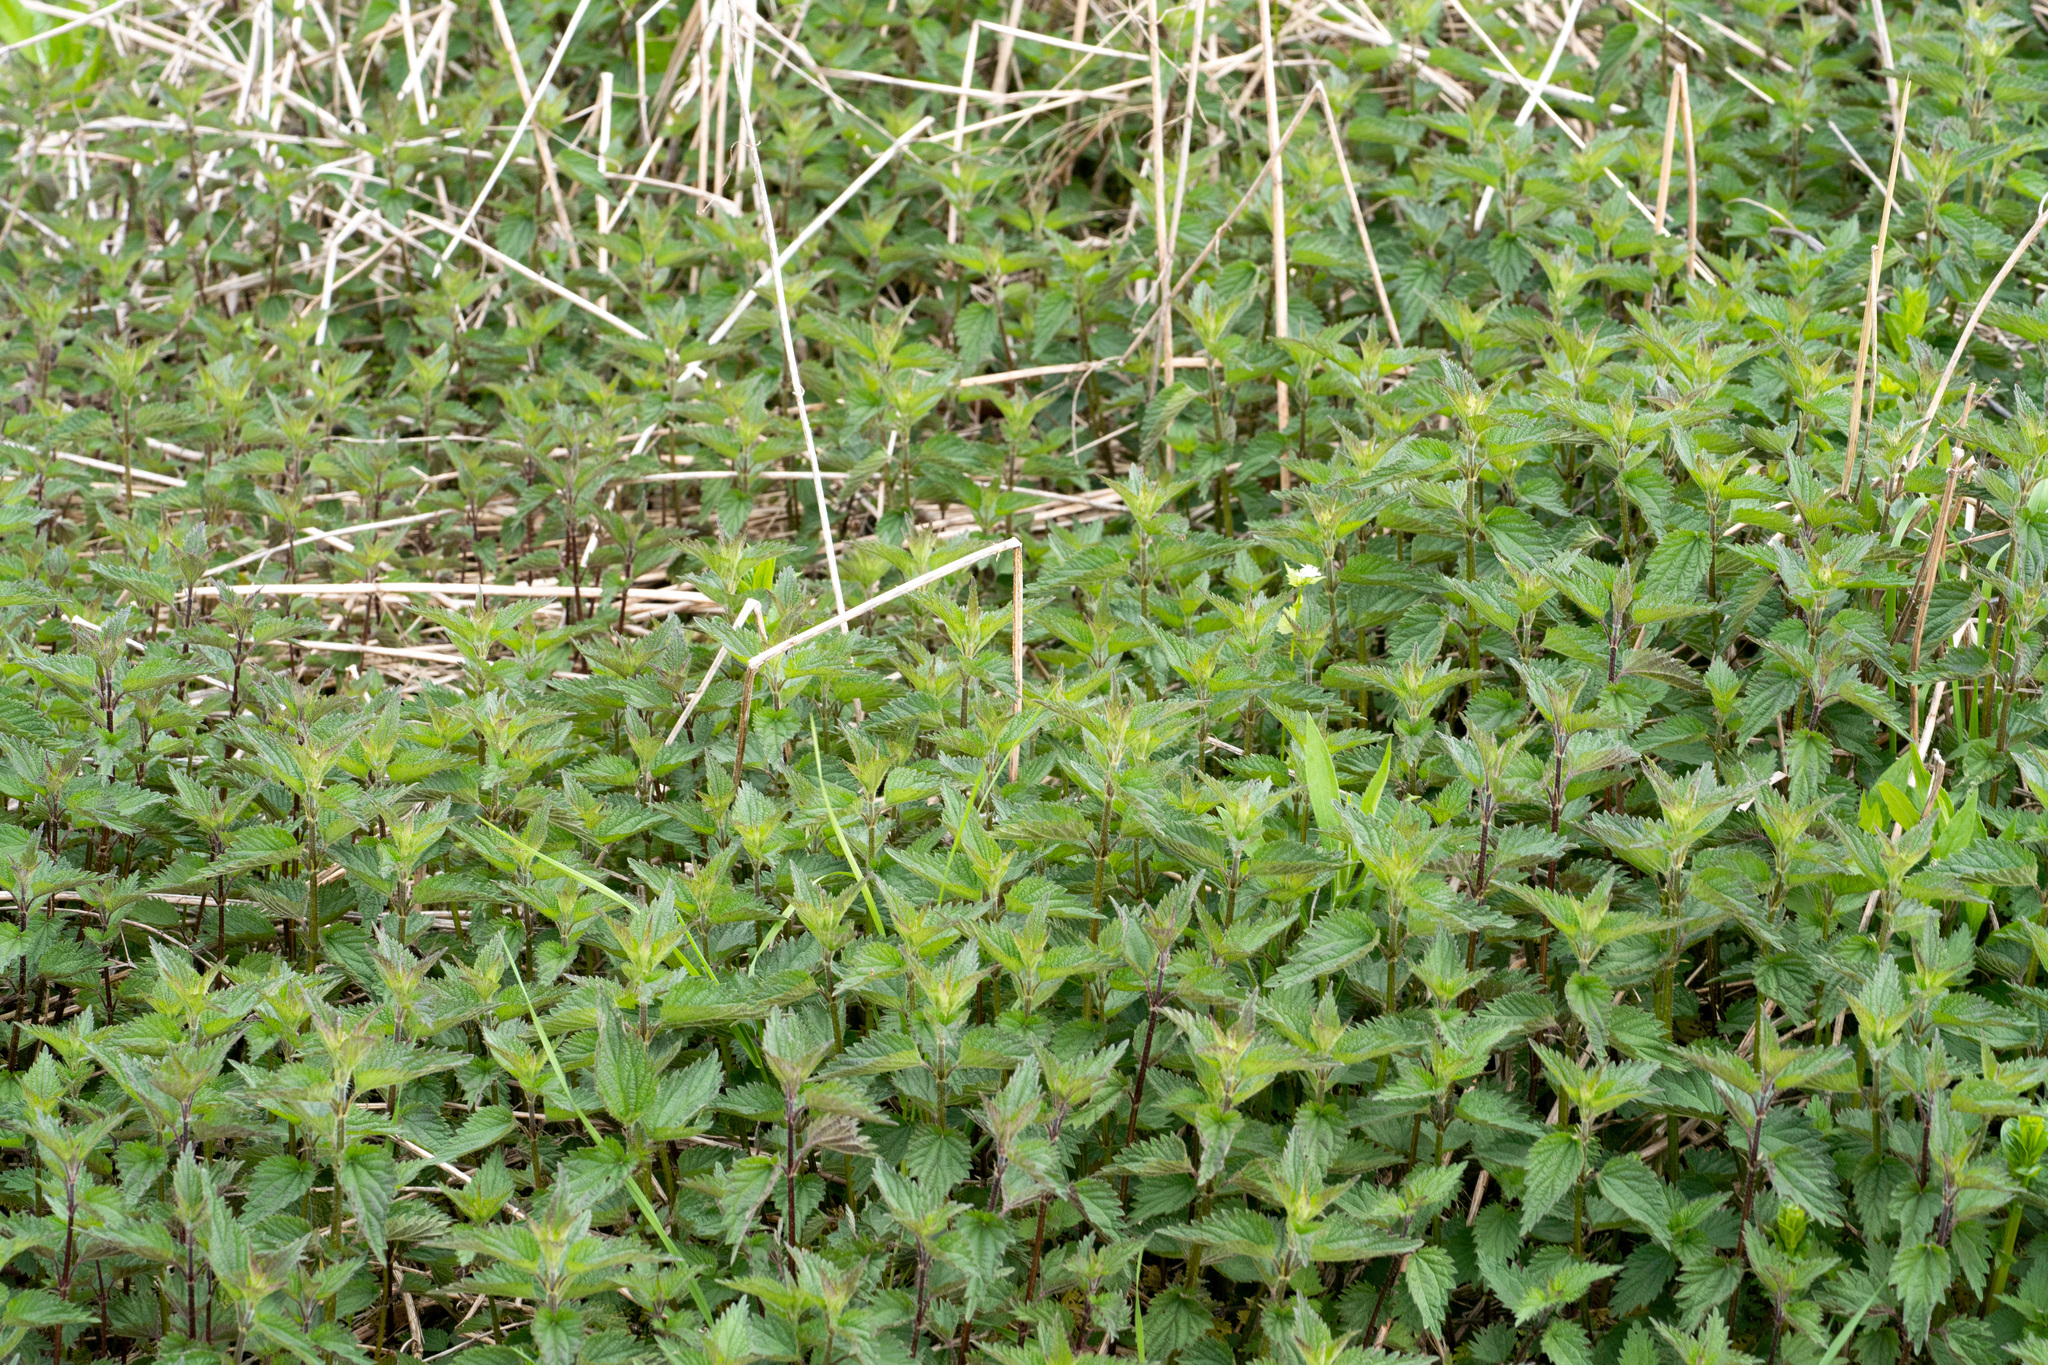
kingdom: Plantae
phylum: Tracheophyta
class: Magnoliopsida
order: Rosales
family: Urticaceae
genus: Urtica
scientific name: Urtica dioica
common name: Common nettle
